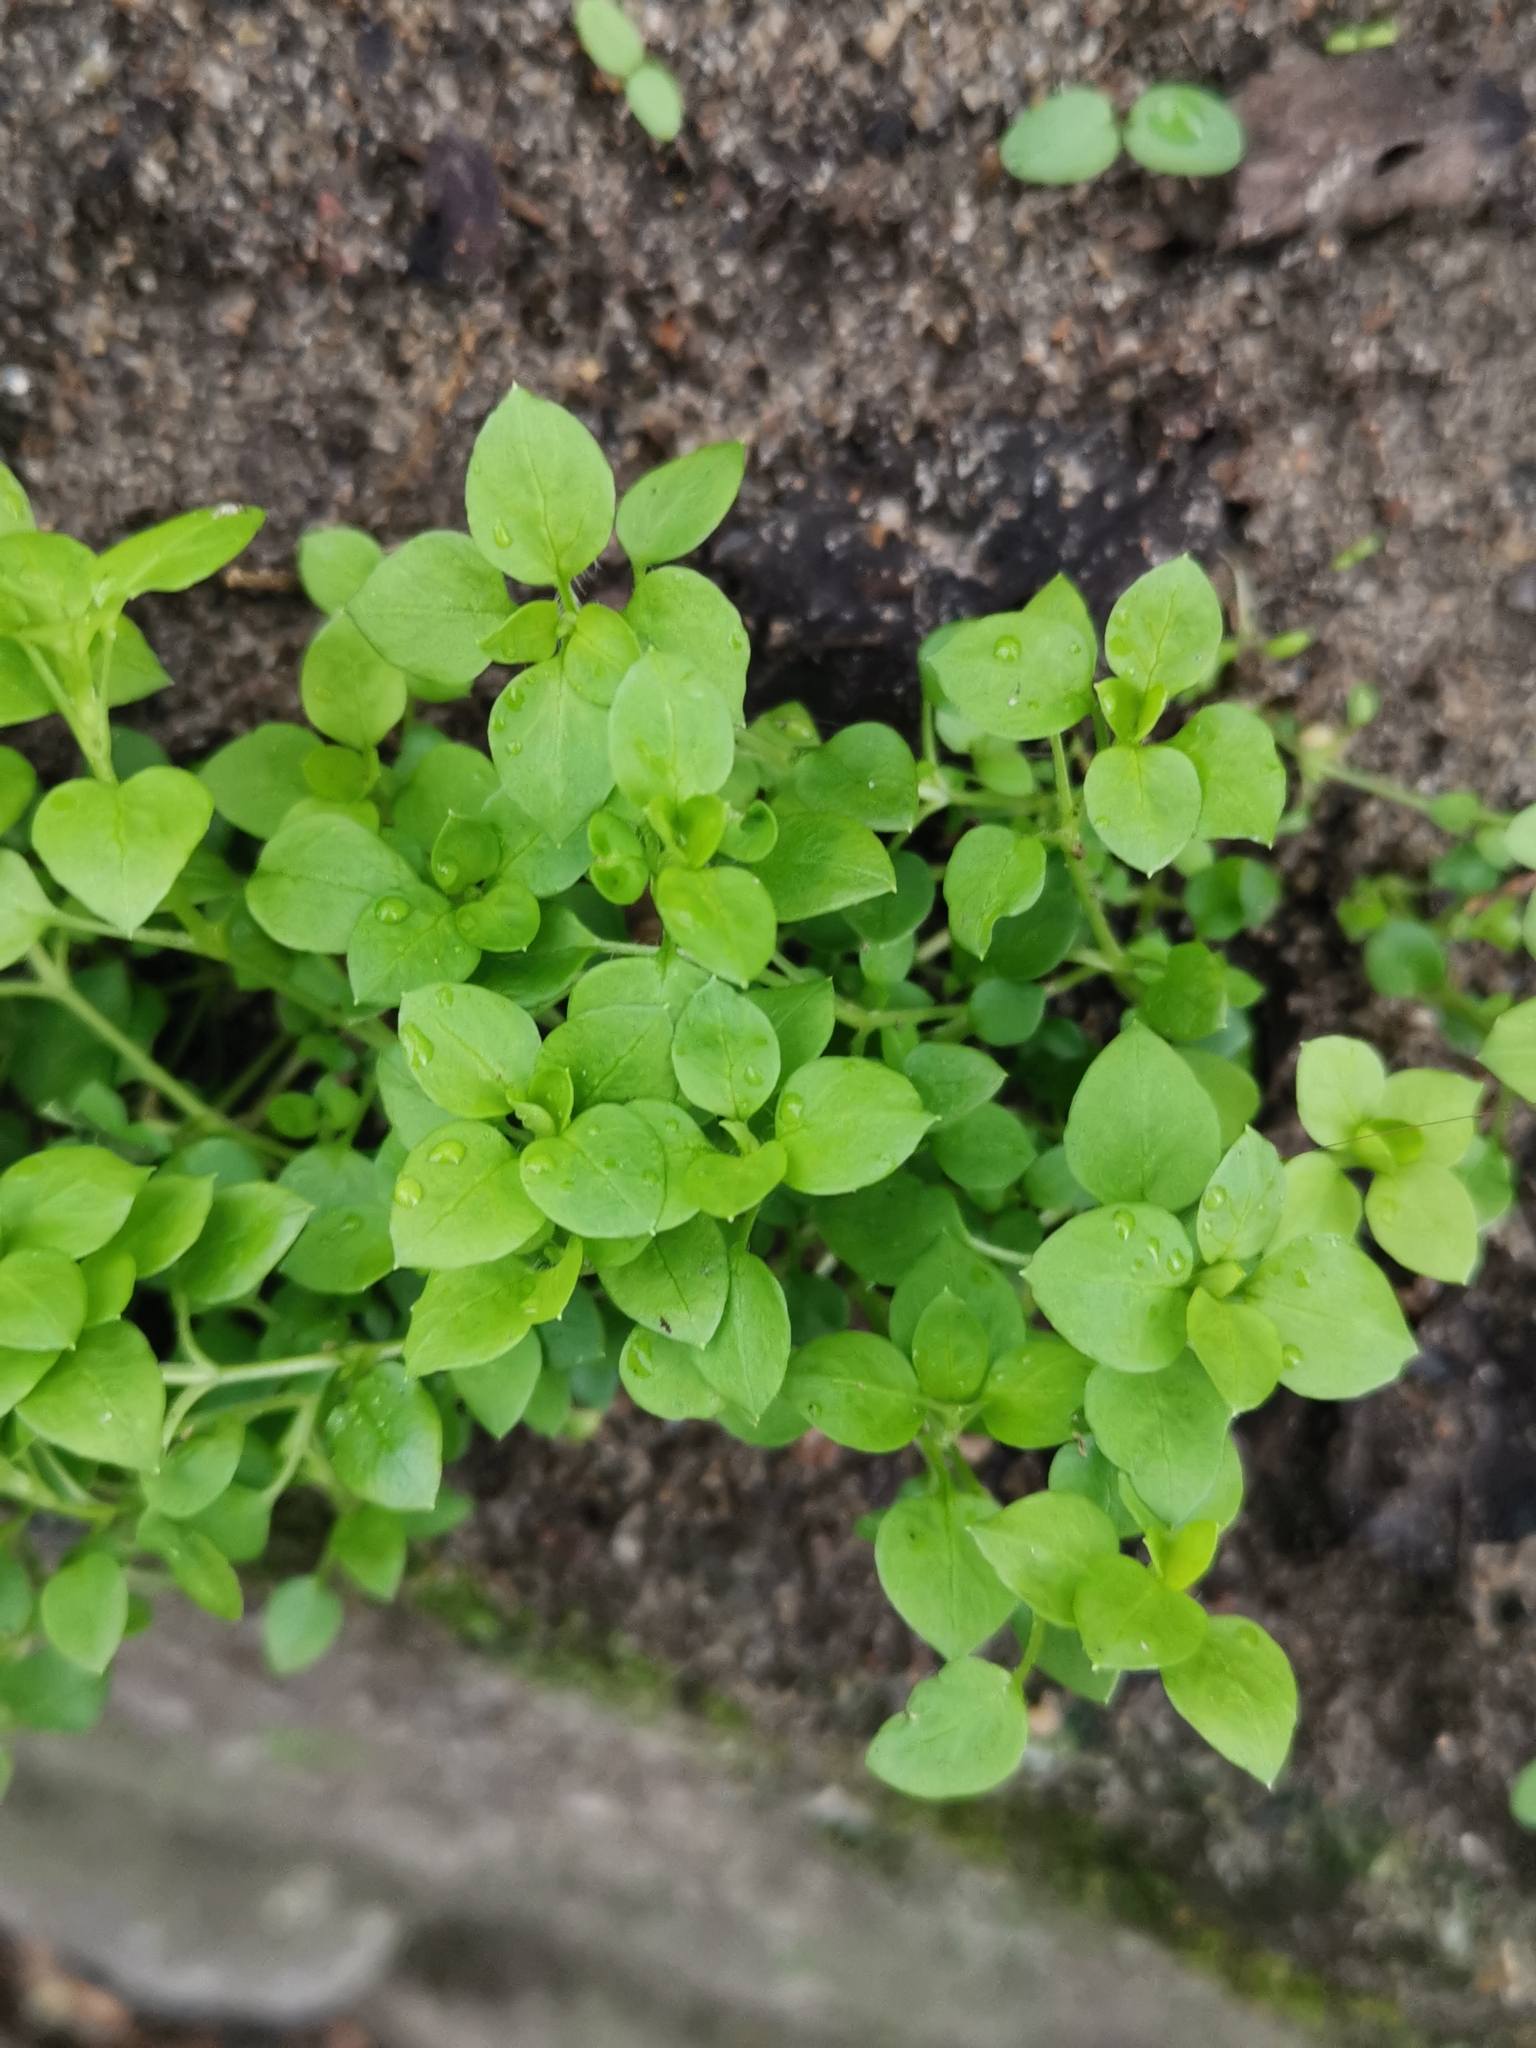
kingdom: Plantae
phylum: Tracheophyta
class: Magnoliopsida
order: Caryophyllales
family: Caryophyllaceae
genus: Stellaria
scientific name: Stellaria media
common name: Common chickweed
